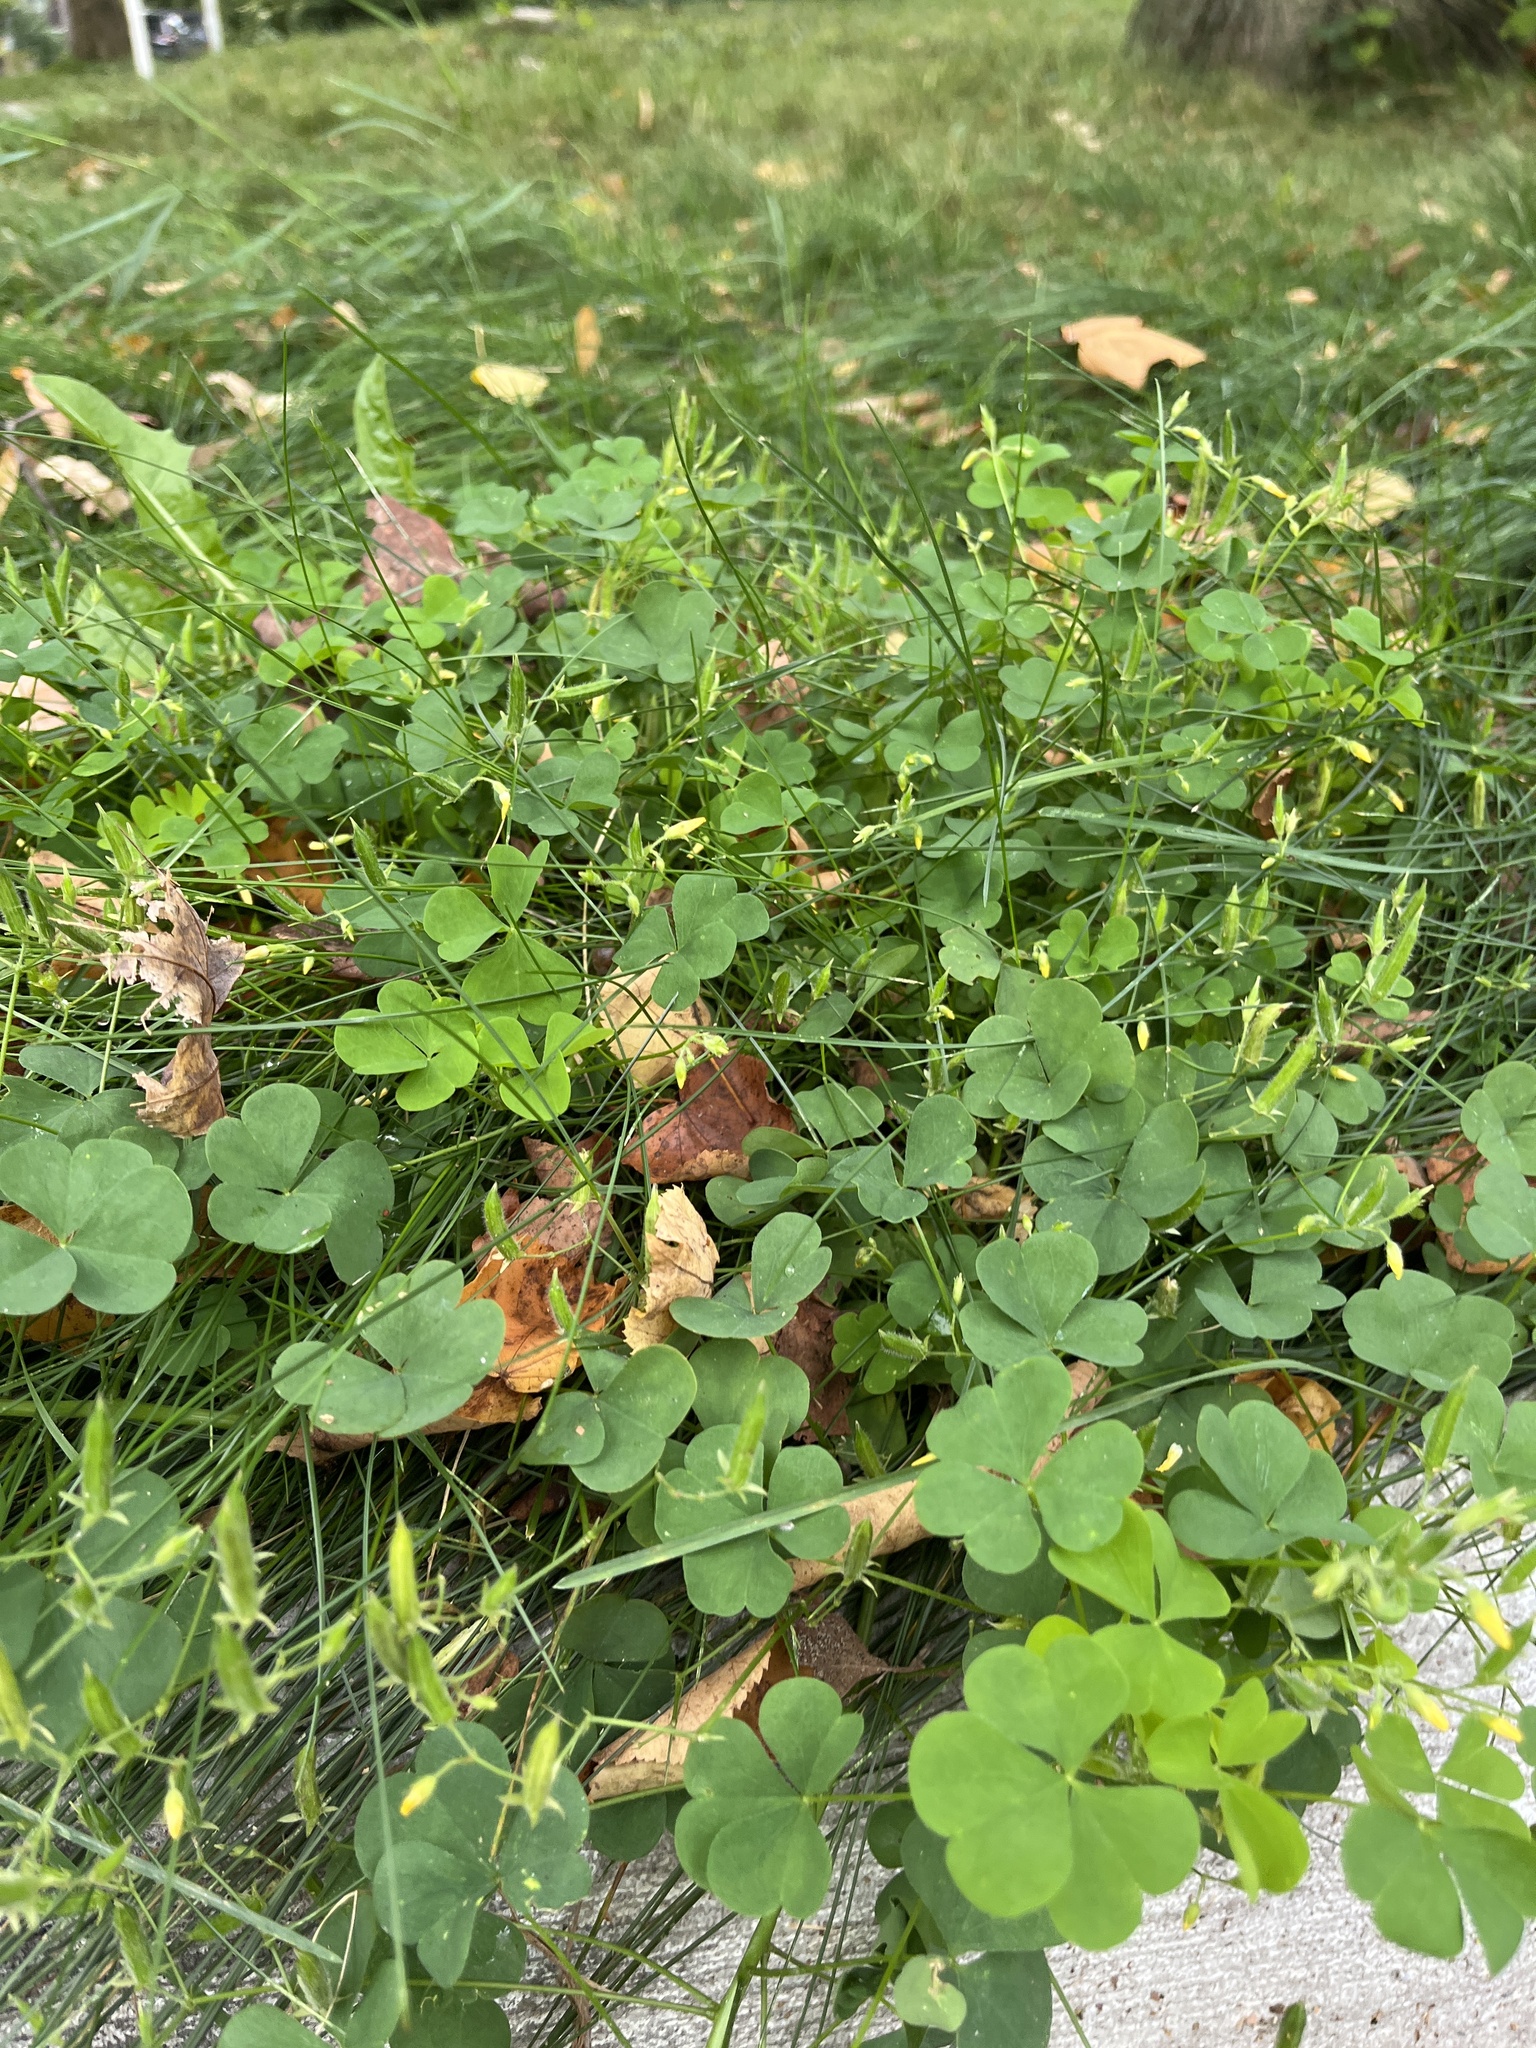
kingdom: Plantae
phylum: Tracheophyta
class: Magnoliopsida
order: Oxalidales
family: Oxalidaceae
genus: Oxalis
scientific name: Oxalis stricta
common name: Upright yellow-sorrel
